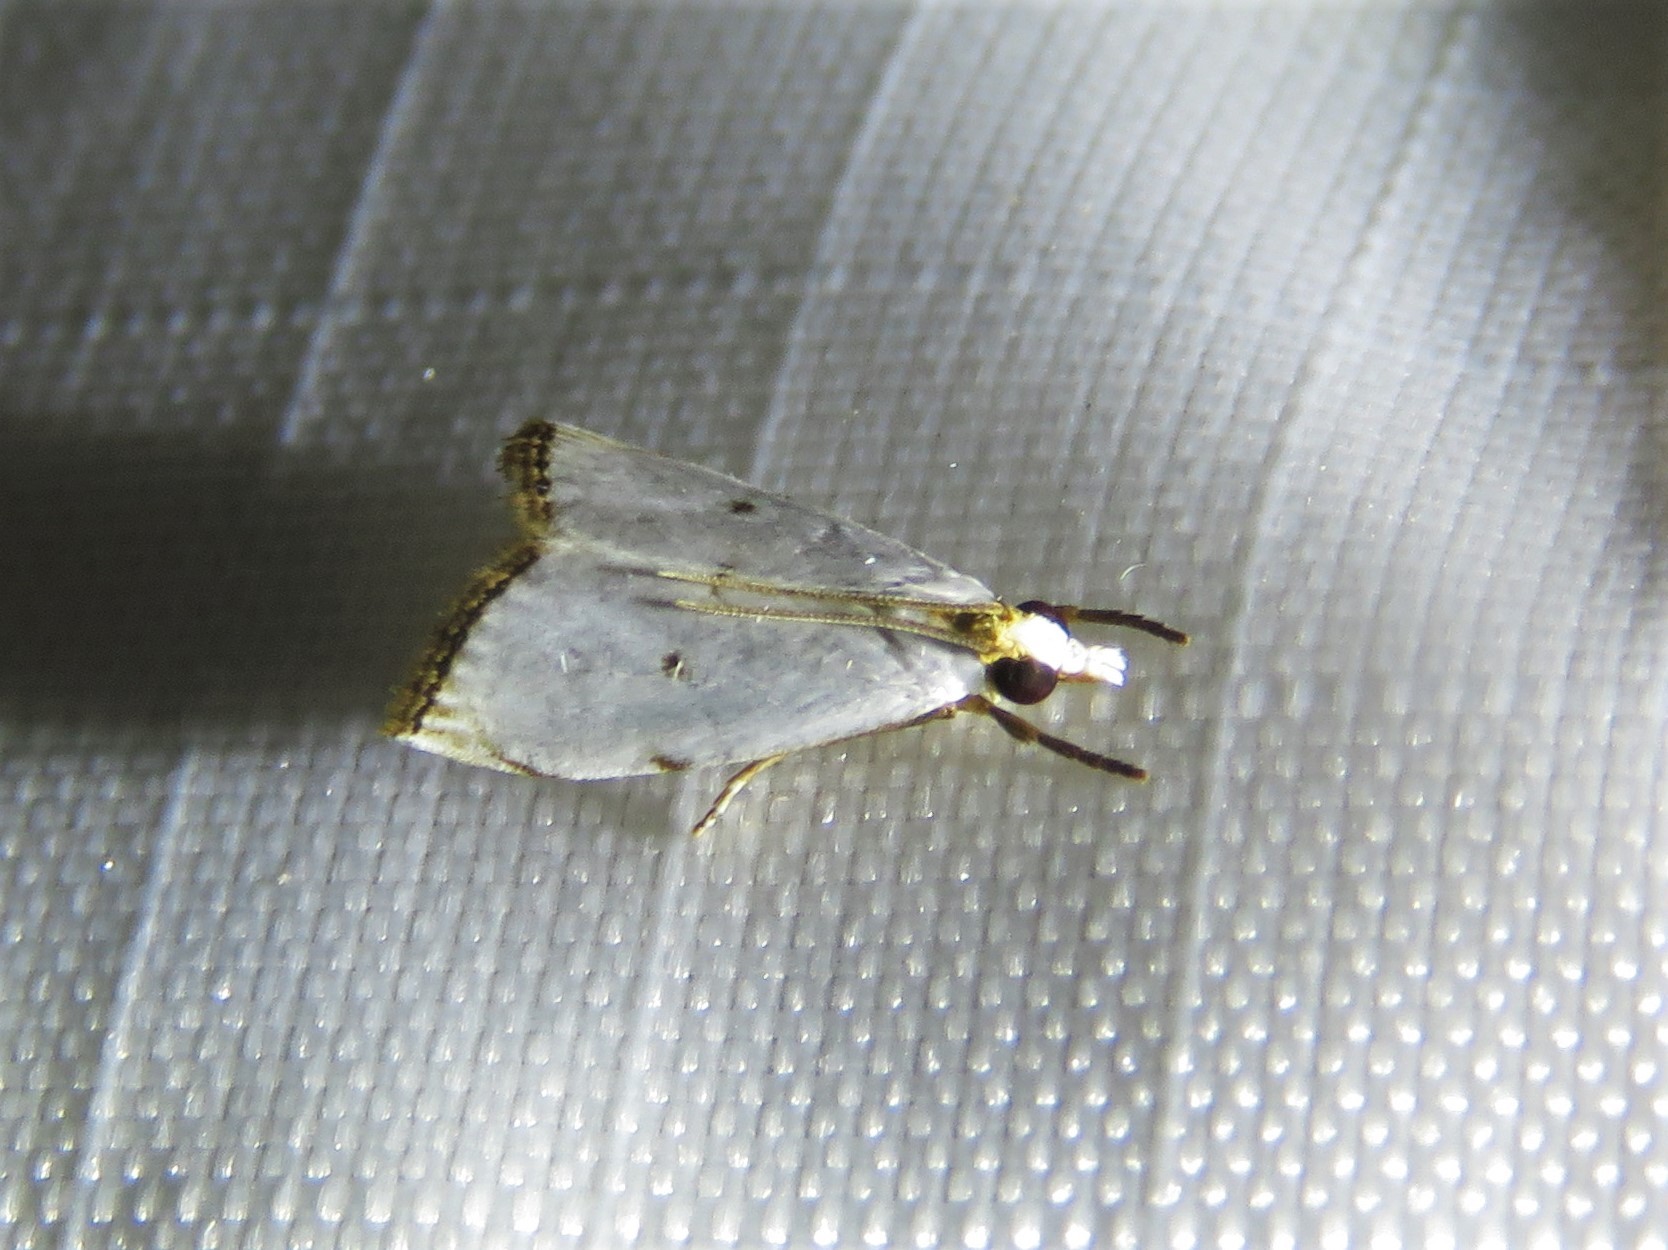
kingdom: Animalia
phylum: Arthropoda
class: Insecta
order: Lepidoptera
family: Crambidae
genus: Argyria
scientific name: Argyria pusillalis
